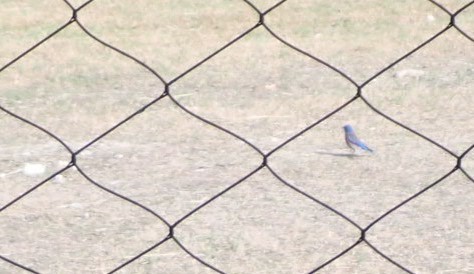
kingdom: Animalia
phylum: Chordata
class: Aves
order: Passeriformes
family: Turdidae
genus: Sialia
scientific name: Sialia mexicana
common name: Western bluebird
